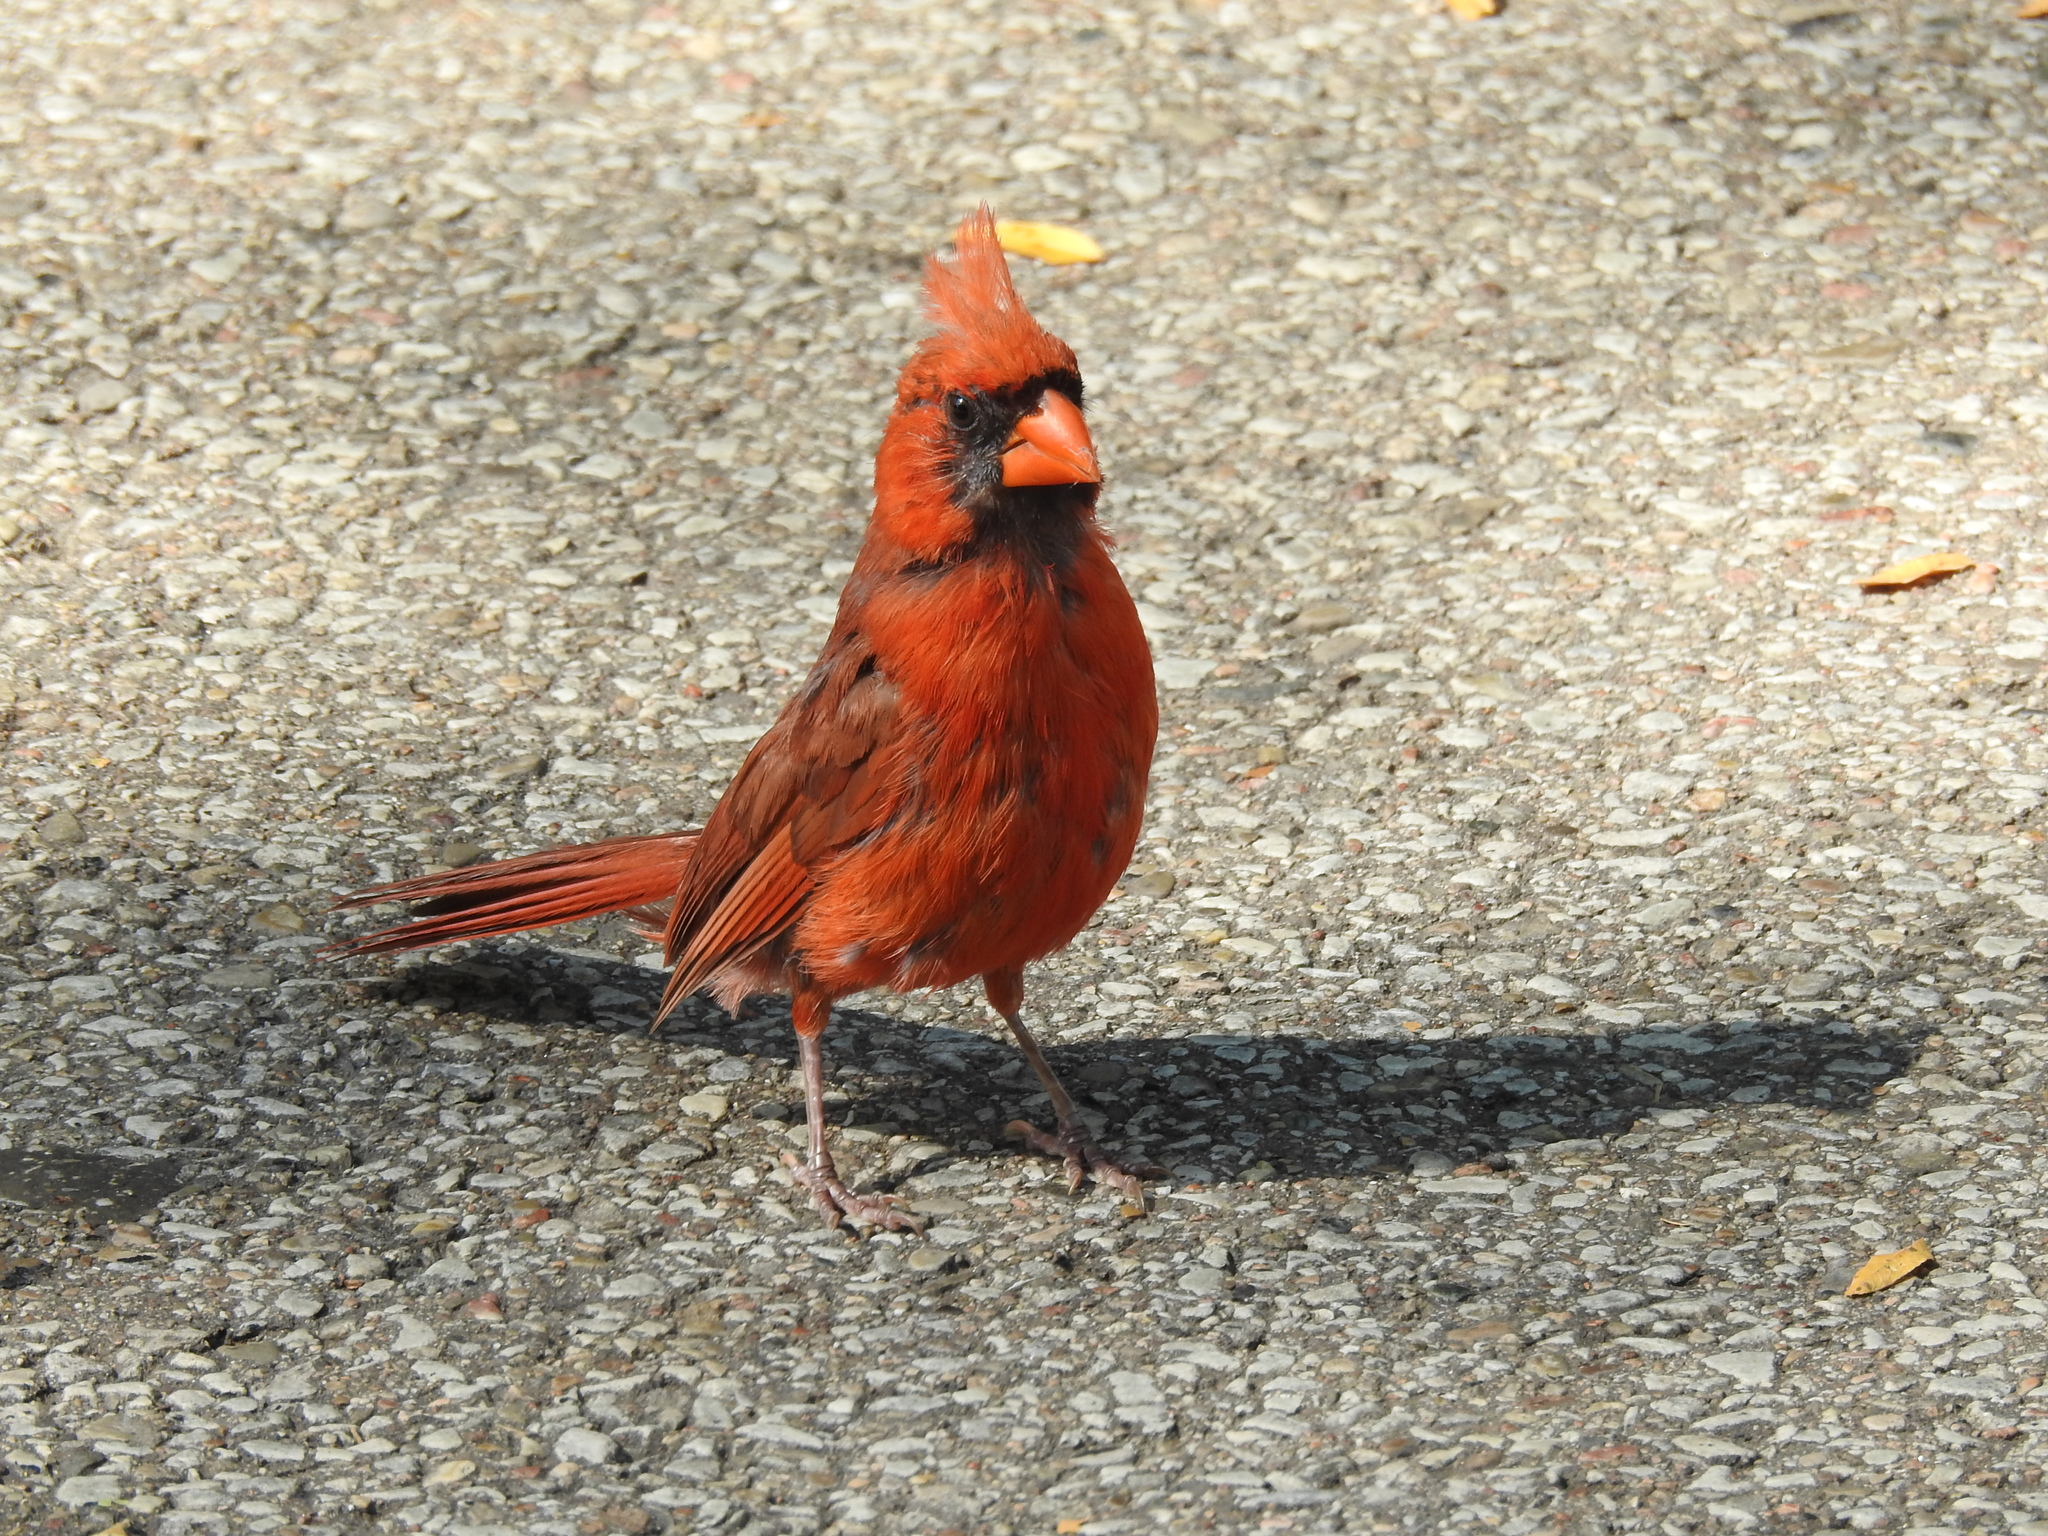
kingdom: Animalia
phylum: Chordata
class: Aves
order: Passeriformes
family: Cardinalidae
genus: Cardinalis
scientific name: Cardinalis cardinalis
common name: Northern cardinal
